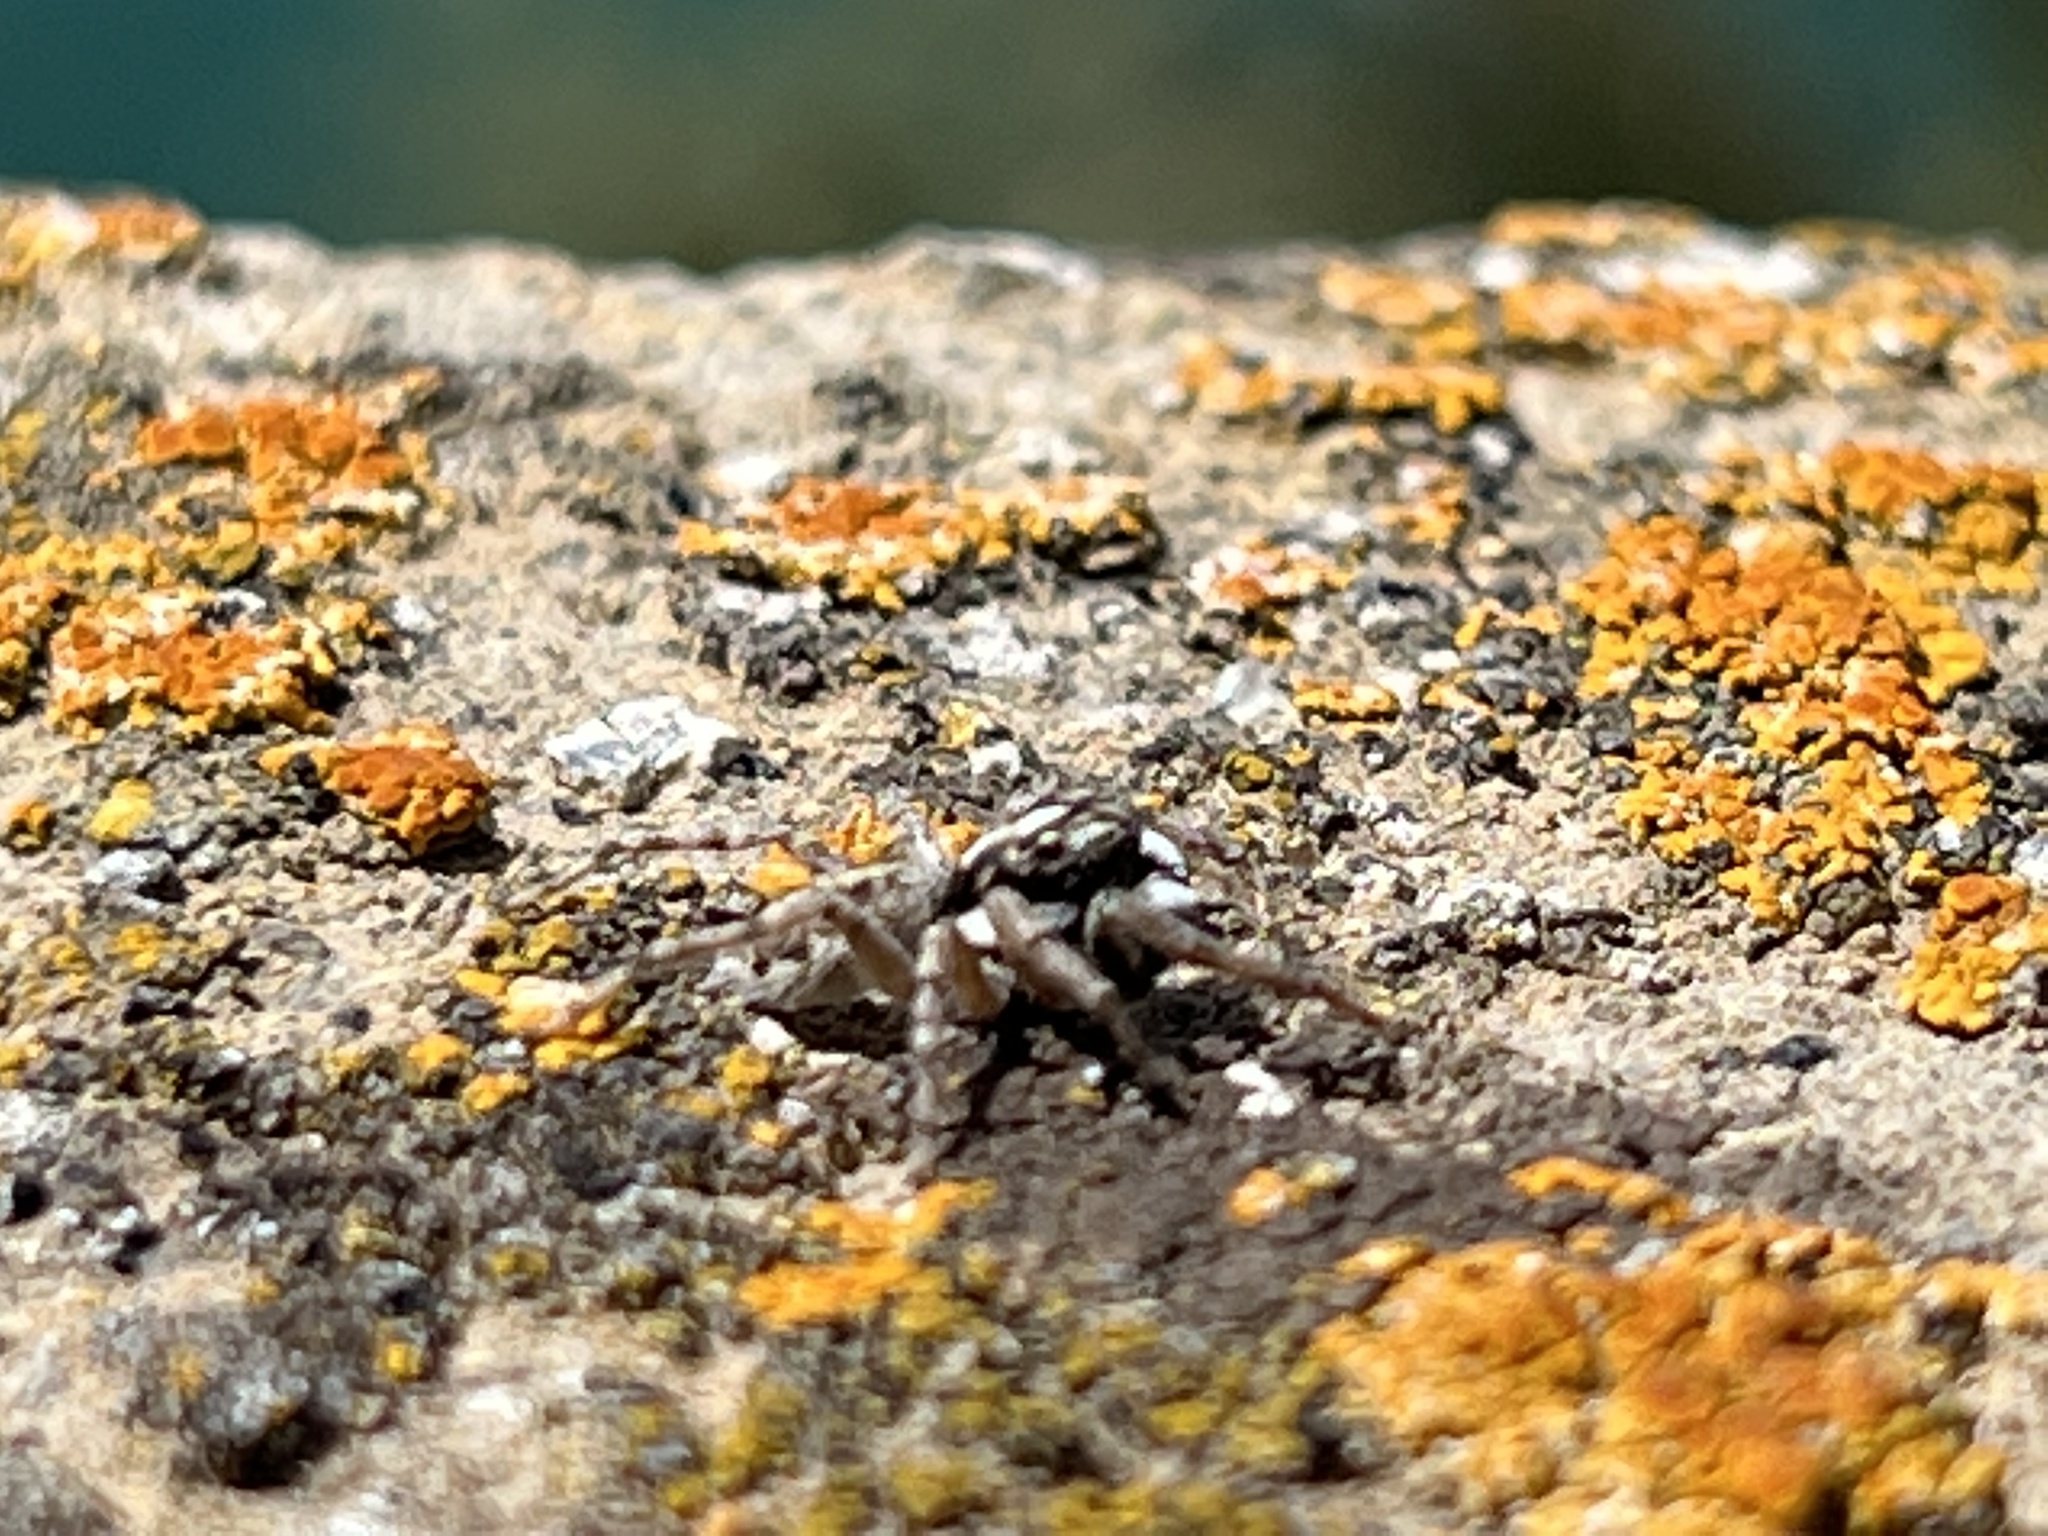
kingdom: Animalia
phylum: Arthropoda
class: Arachnida
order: Araneae
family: Salticidae
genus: Menemerus
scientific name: Menemerus semilimbatus
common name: Jumping spider
